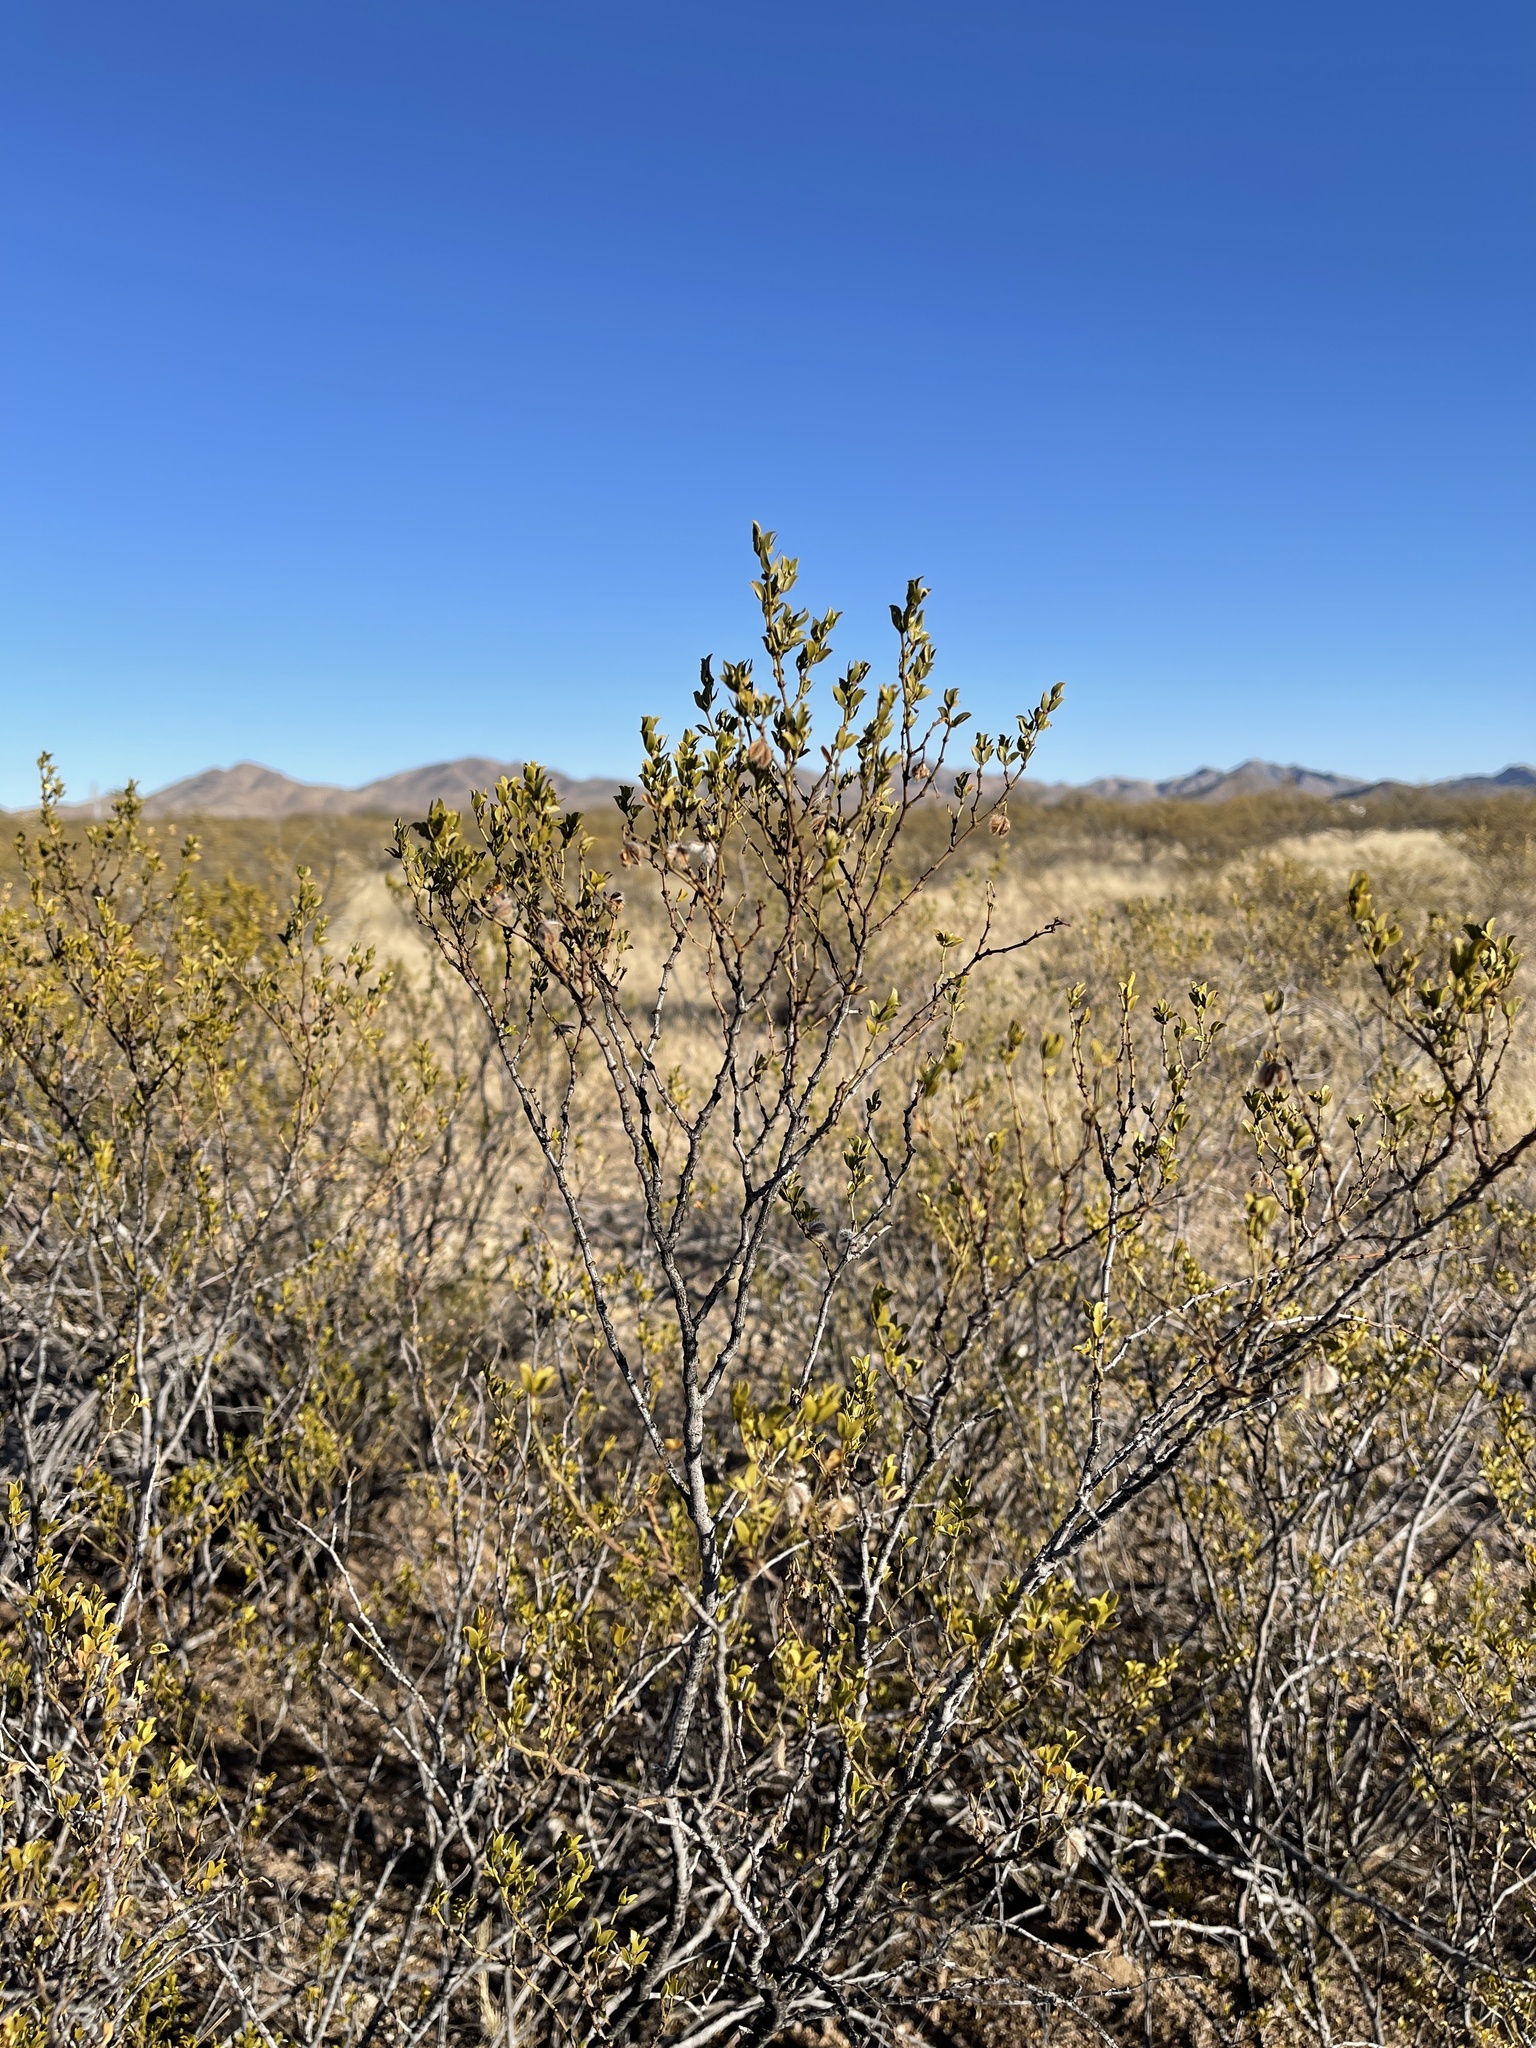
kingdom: Plantae
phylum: Tracheophyta
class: Magnoliopsida
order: Zygophyllales
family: Zygophyllaceae
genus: Larrea
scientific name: Larrea tridentata
